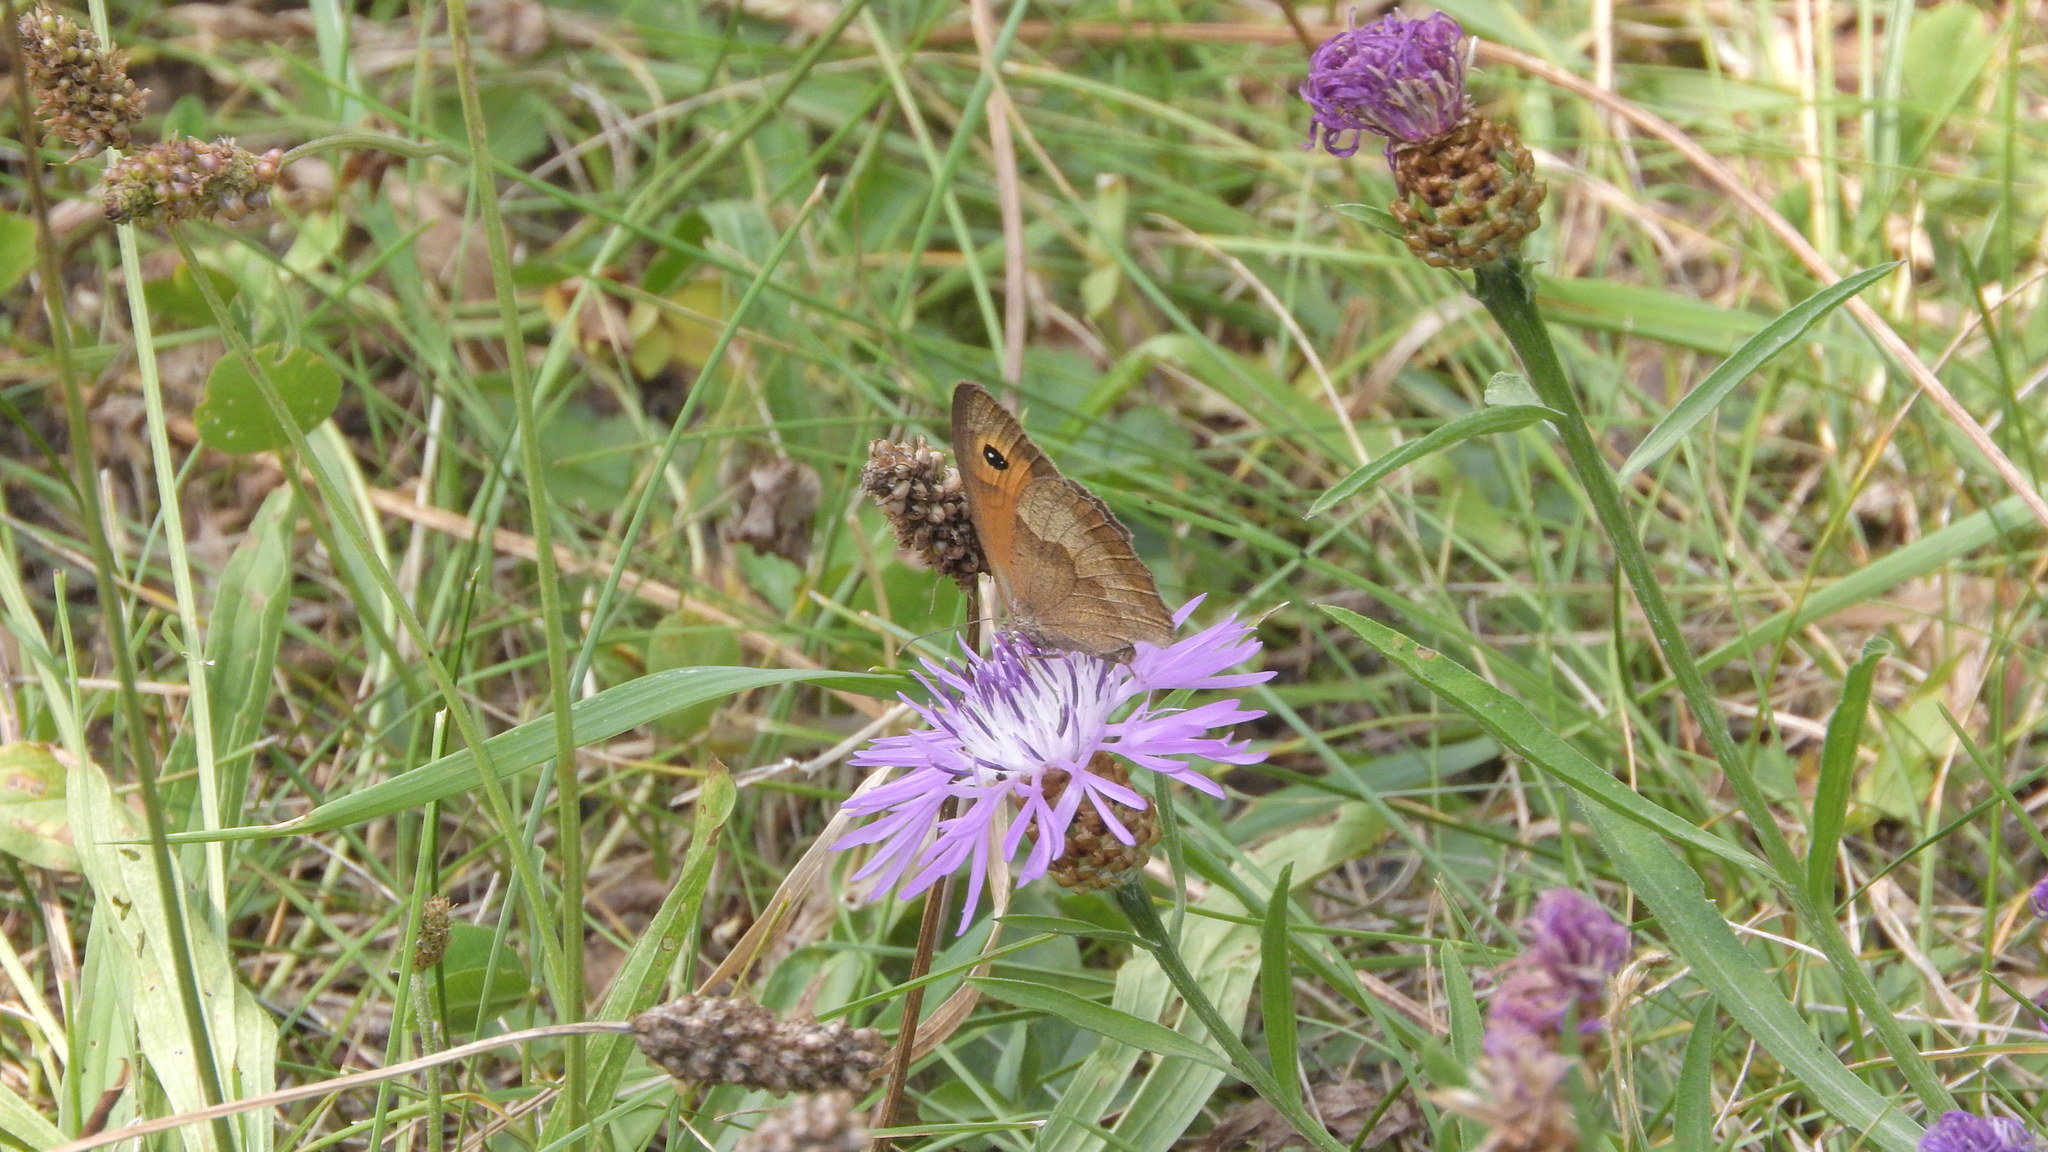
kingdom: Animalia
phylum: Arthropoda
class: Insecta
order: Lepidoptera
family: Nymphalidae
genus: Maniola
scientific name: Maniola jurtina
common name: Meadow brown
